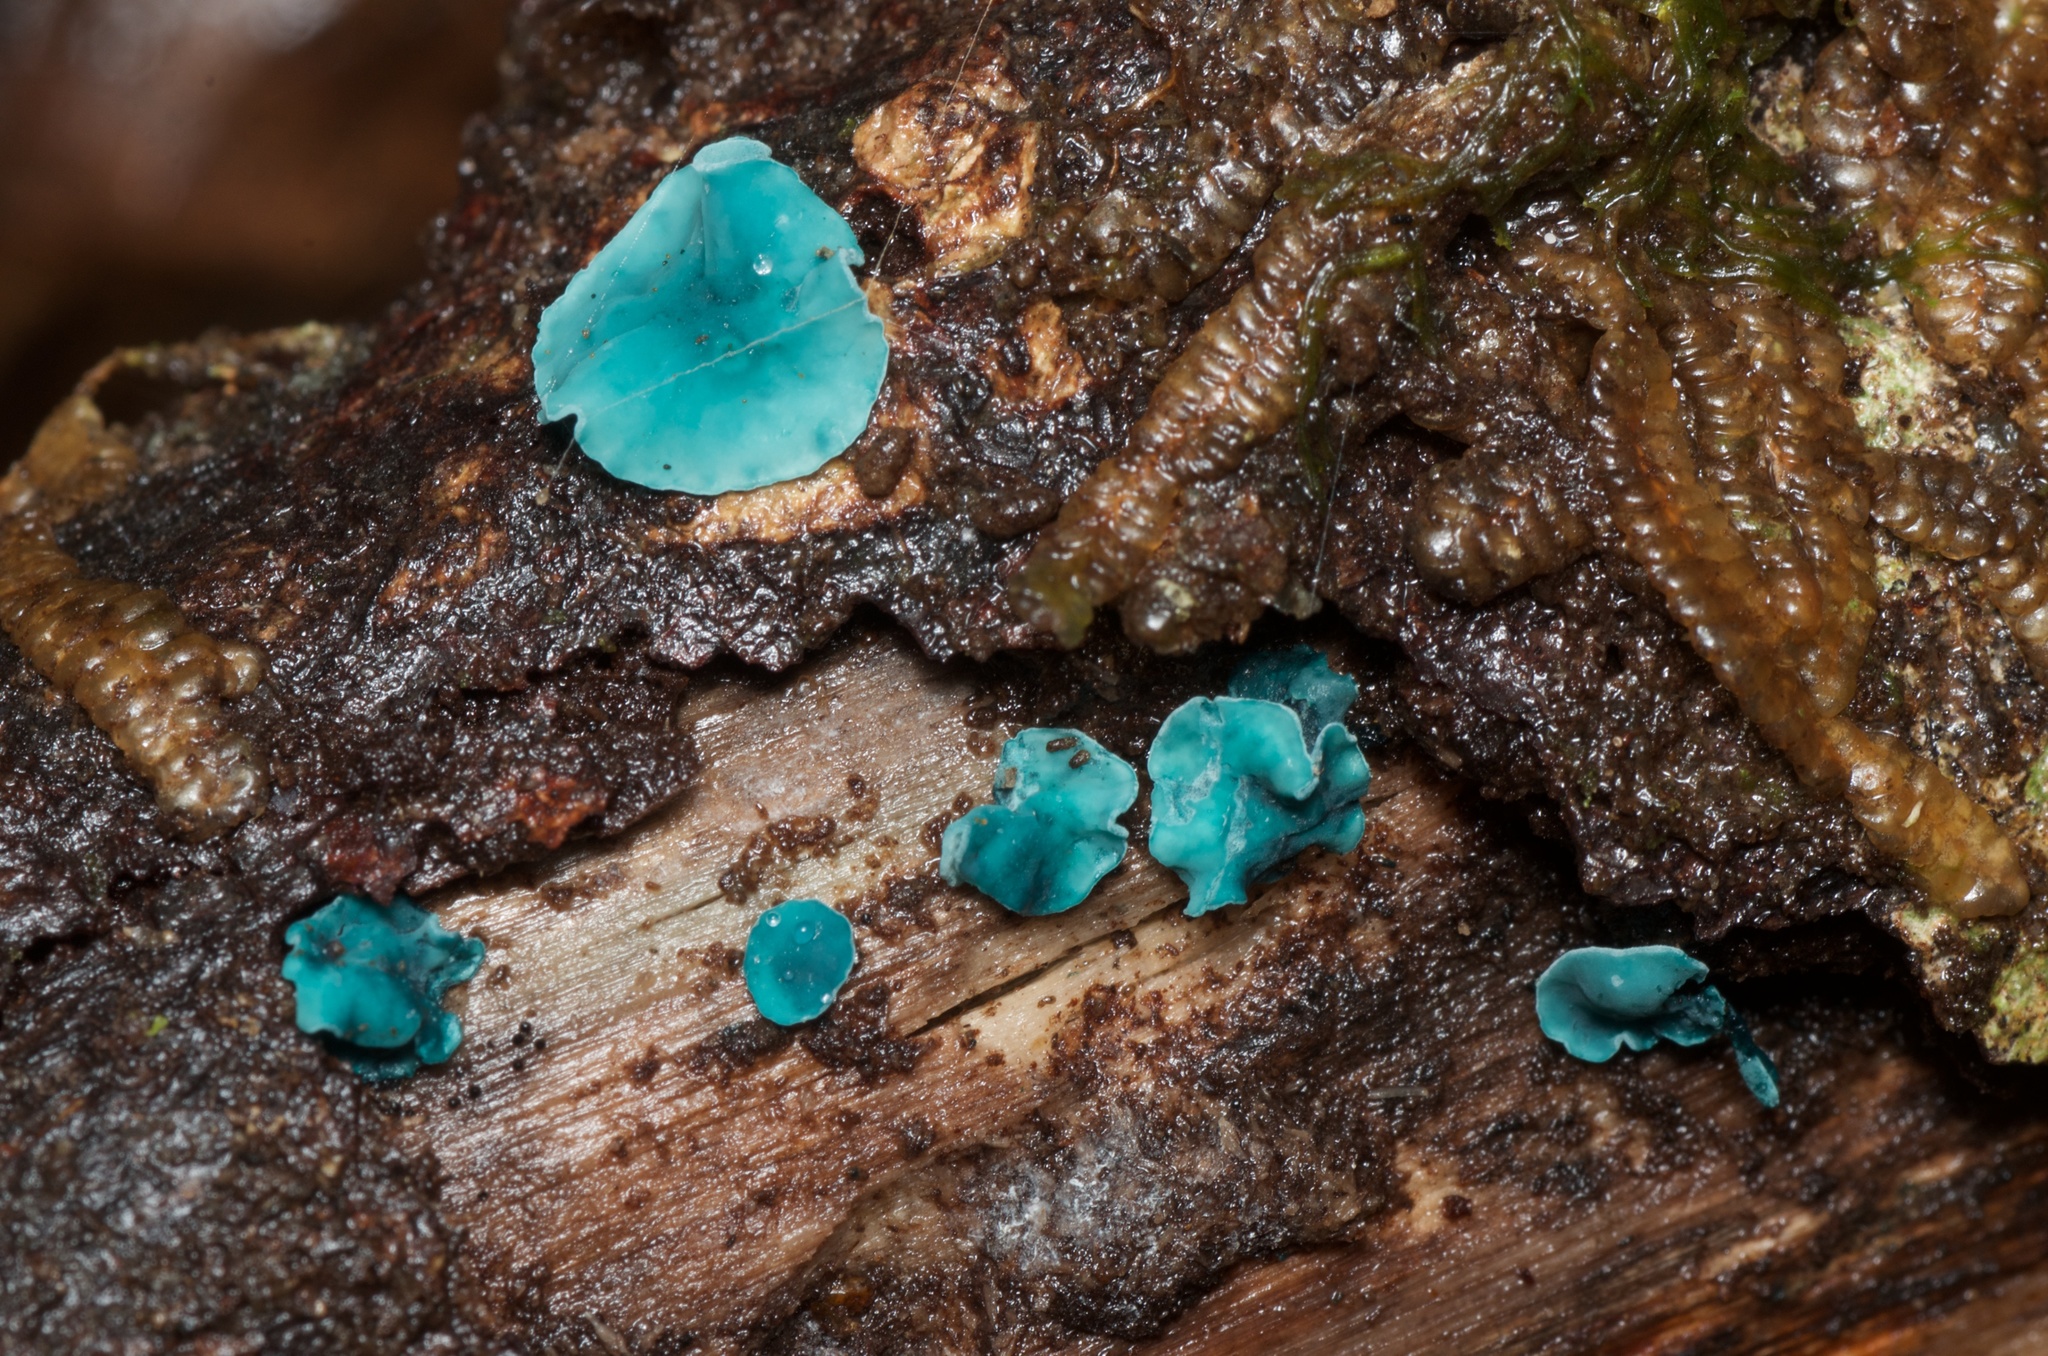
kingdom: Fungi
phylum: Ascomycota
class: Leotiomycetes
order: Helotiales
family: Chlorociboriaceae
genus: Chlorociboria
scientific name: Chlorociboria
